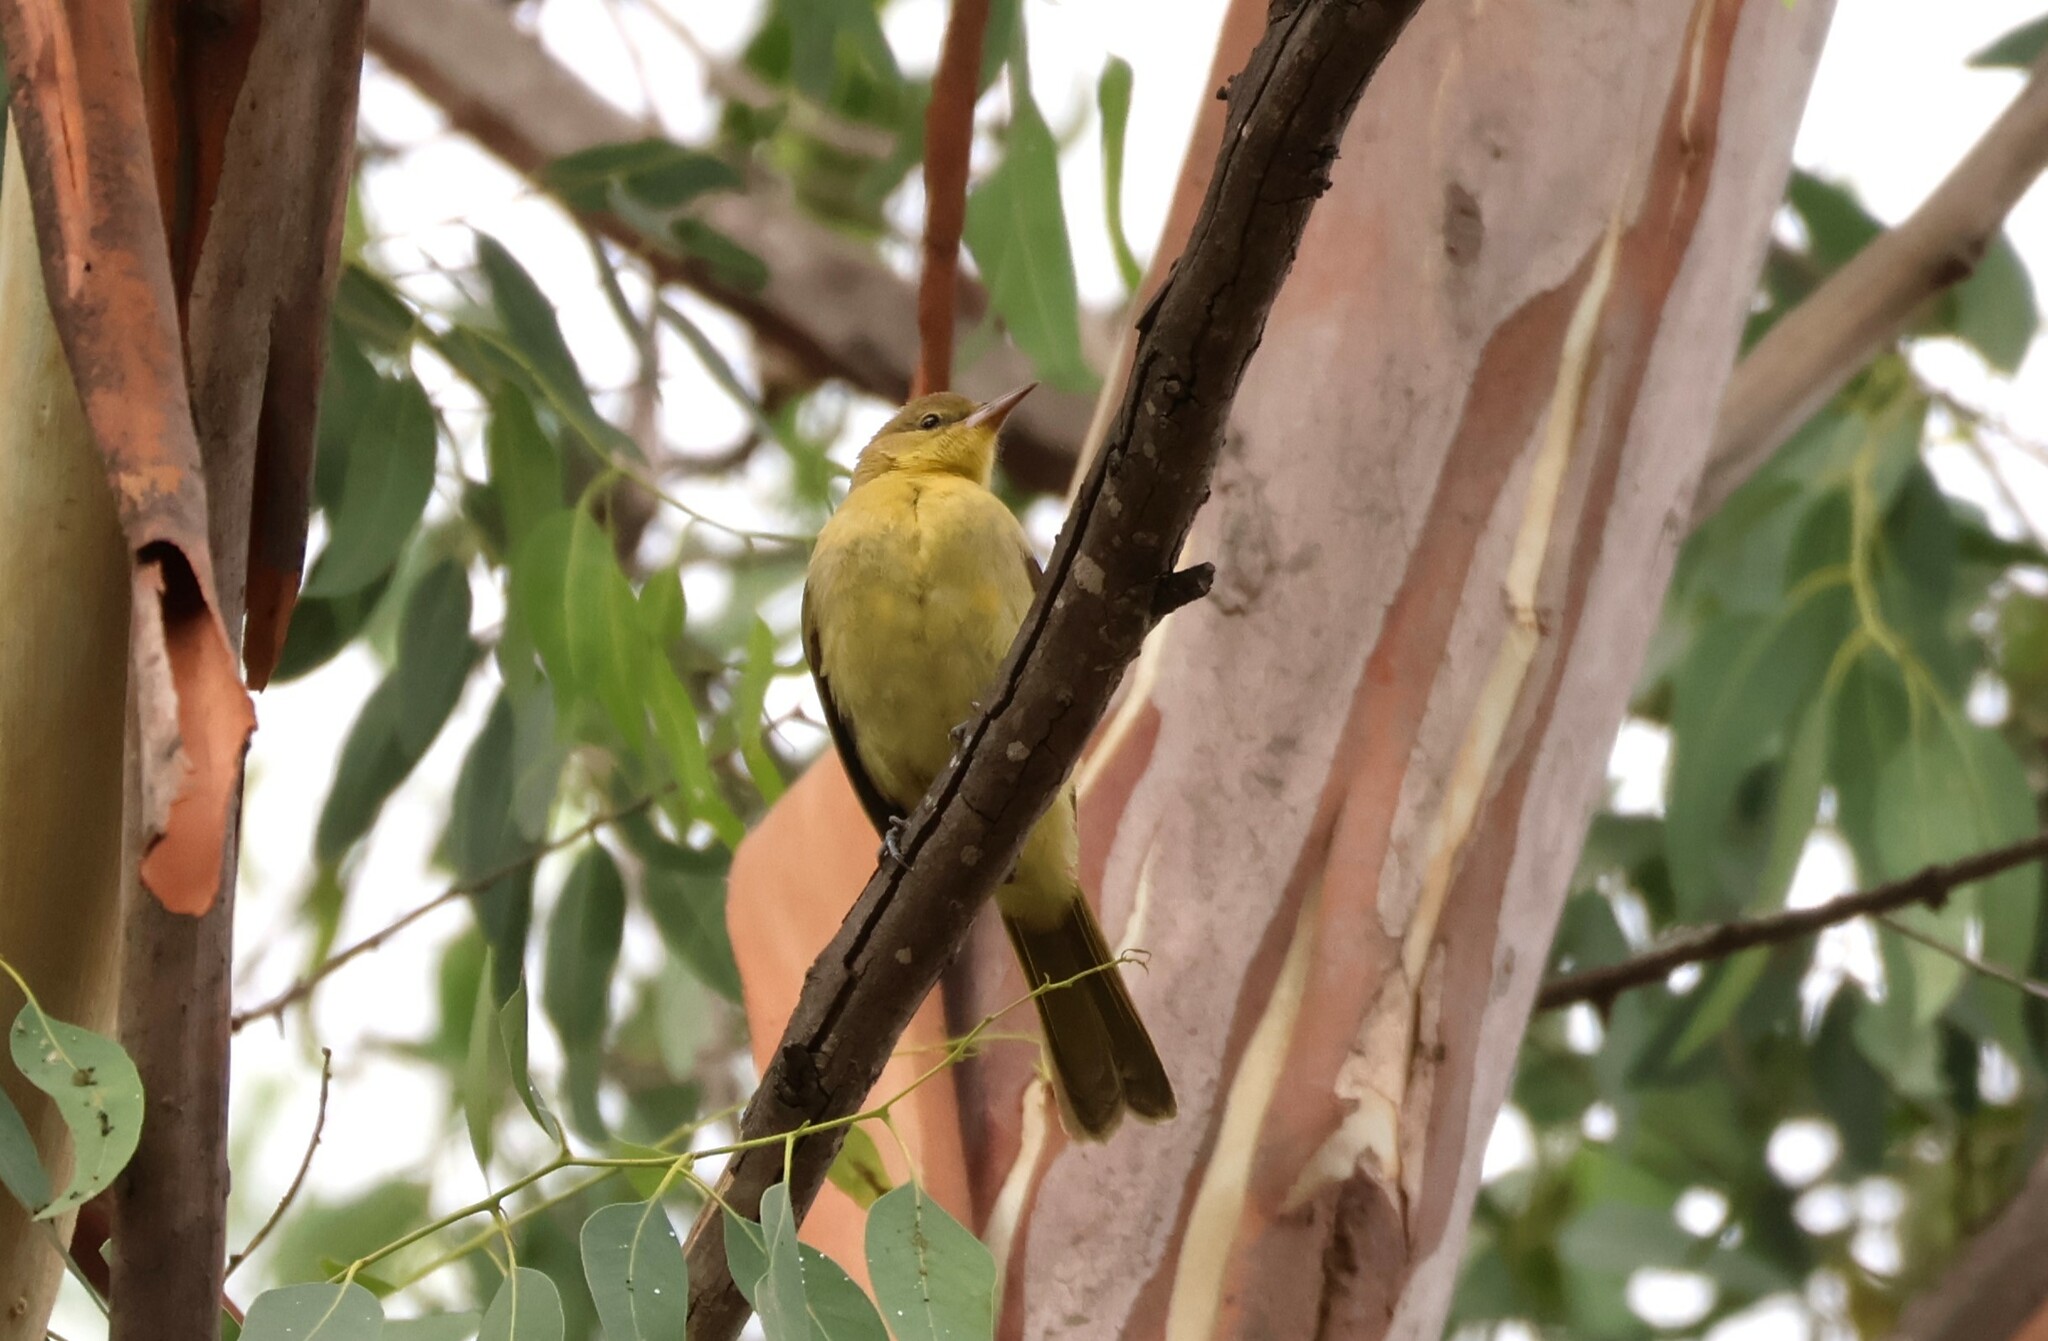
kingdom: Animalia
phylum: Chordata
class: Aves
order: Passeriformes
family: Icteridae
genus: Icterus
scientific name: Icterus cucullatus
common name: Hooded oriole
